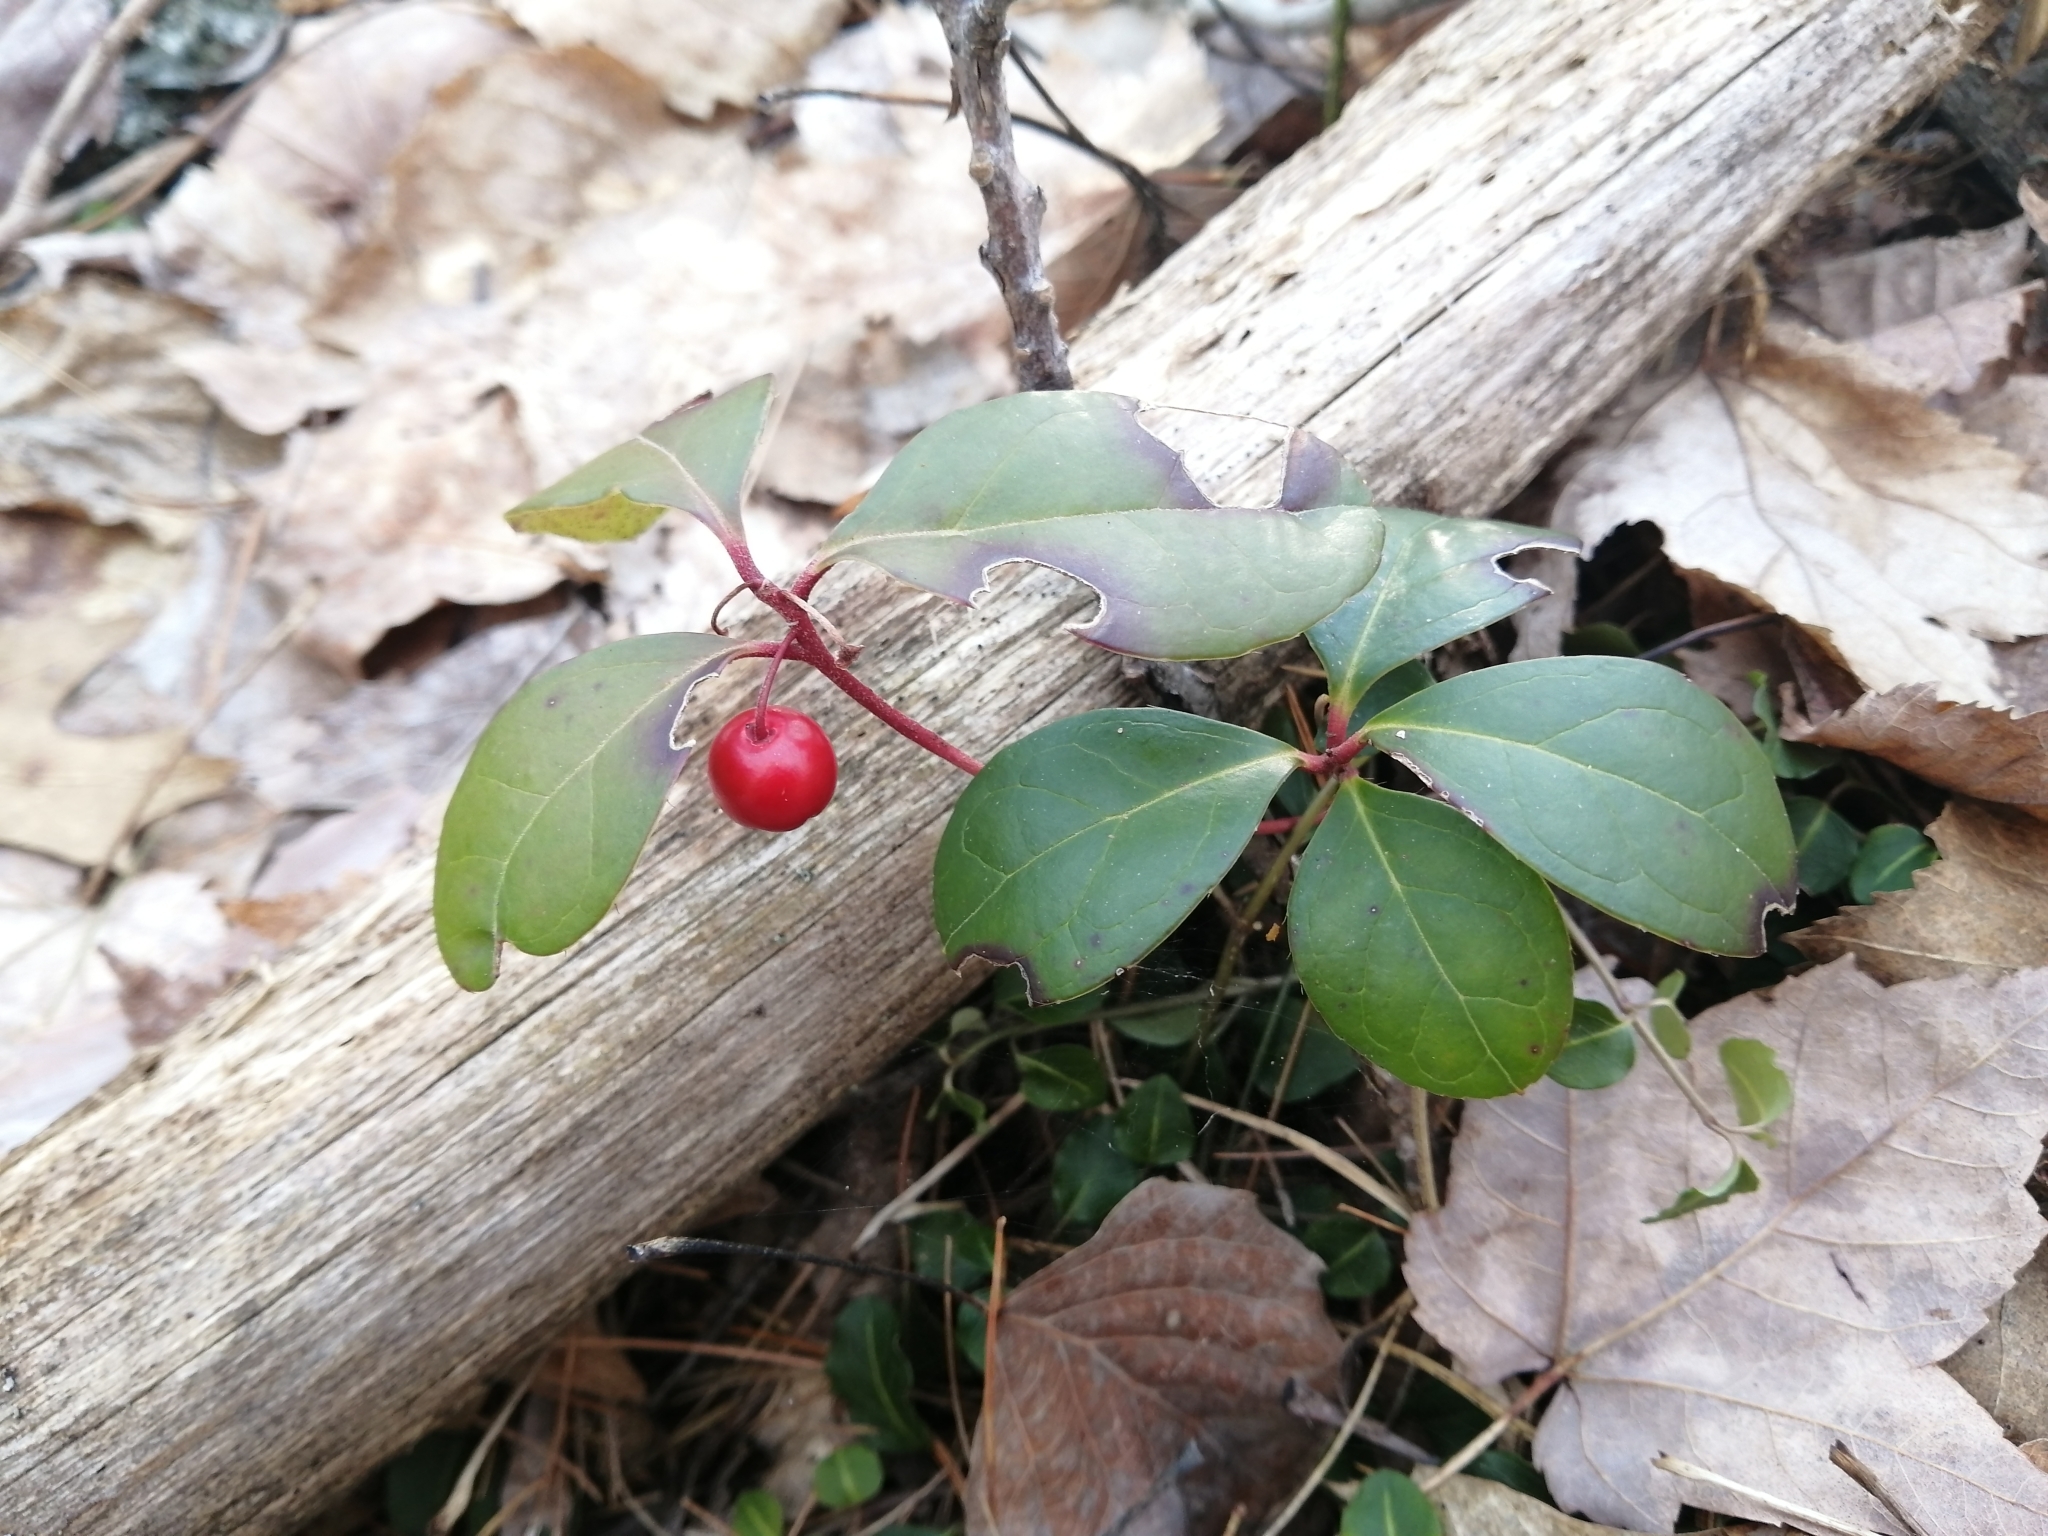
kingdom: Plantae
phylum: Tracheophyta
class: Magnoliopsida
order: Ericales
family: Ericaceae
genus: Gaultheria
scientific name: Gaultheria procumbens
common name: Checkerberry
